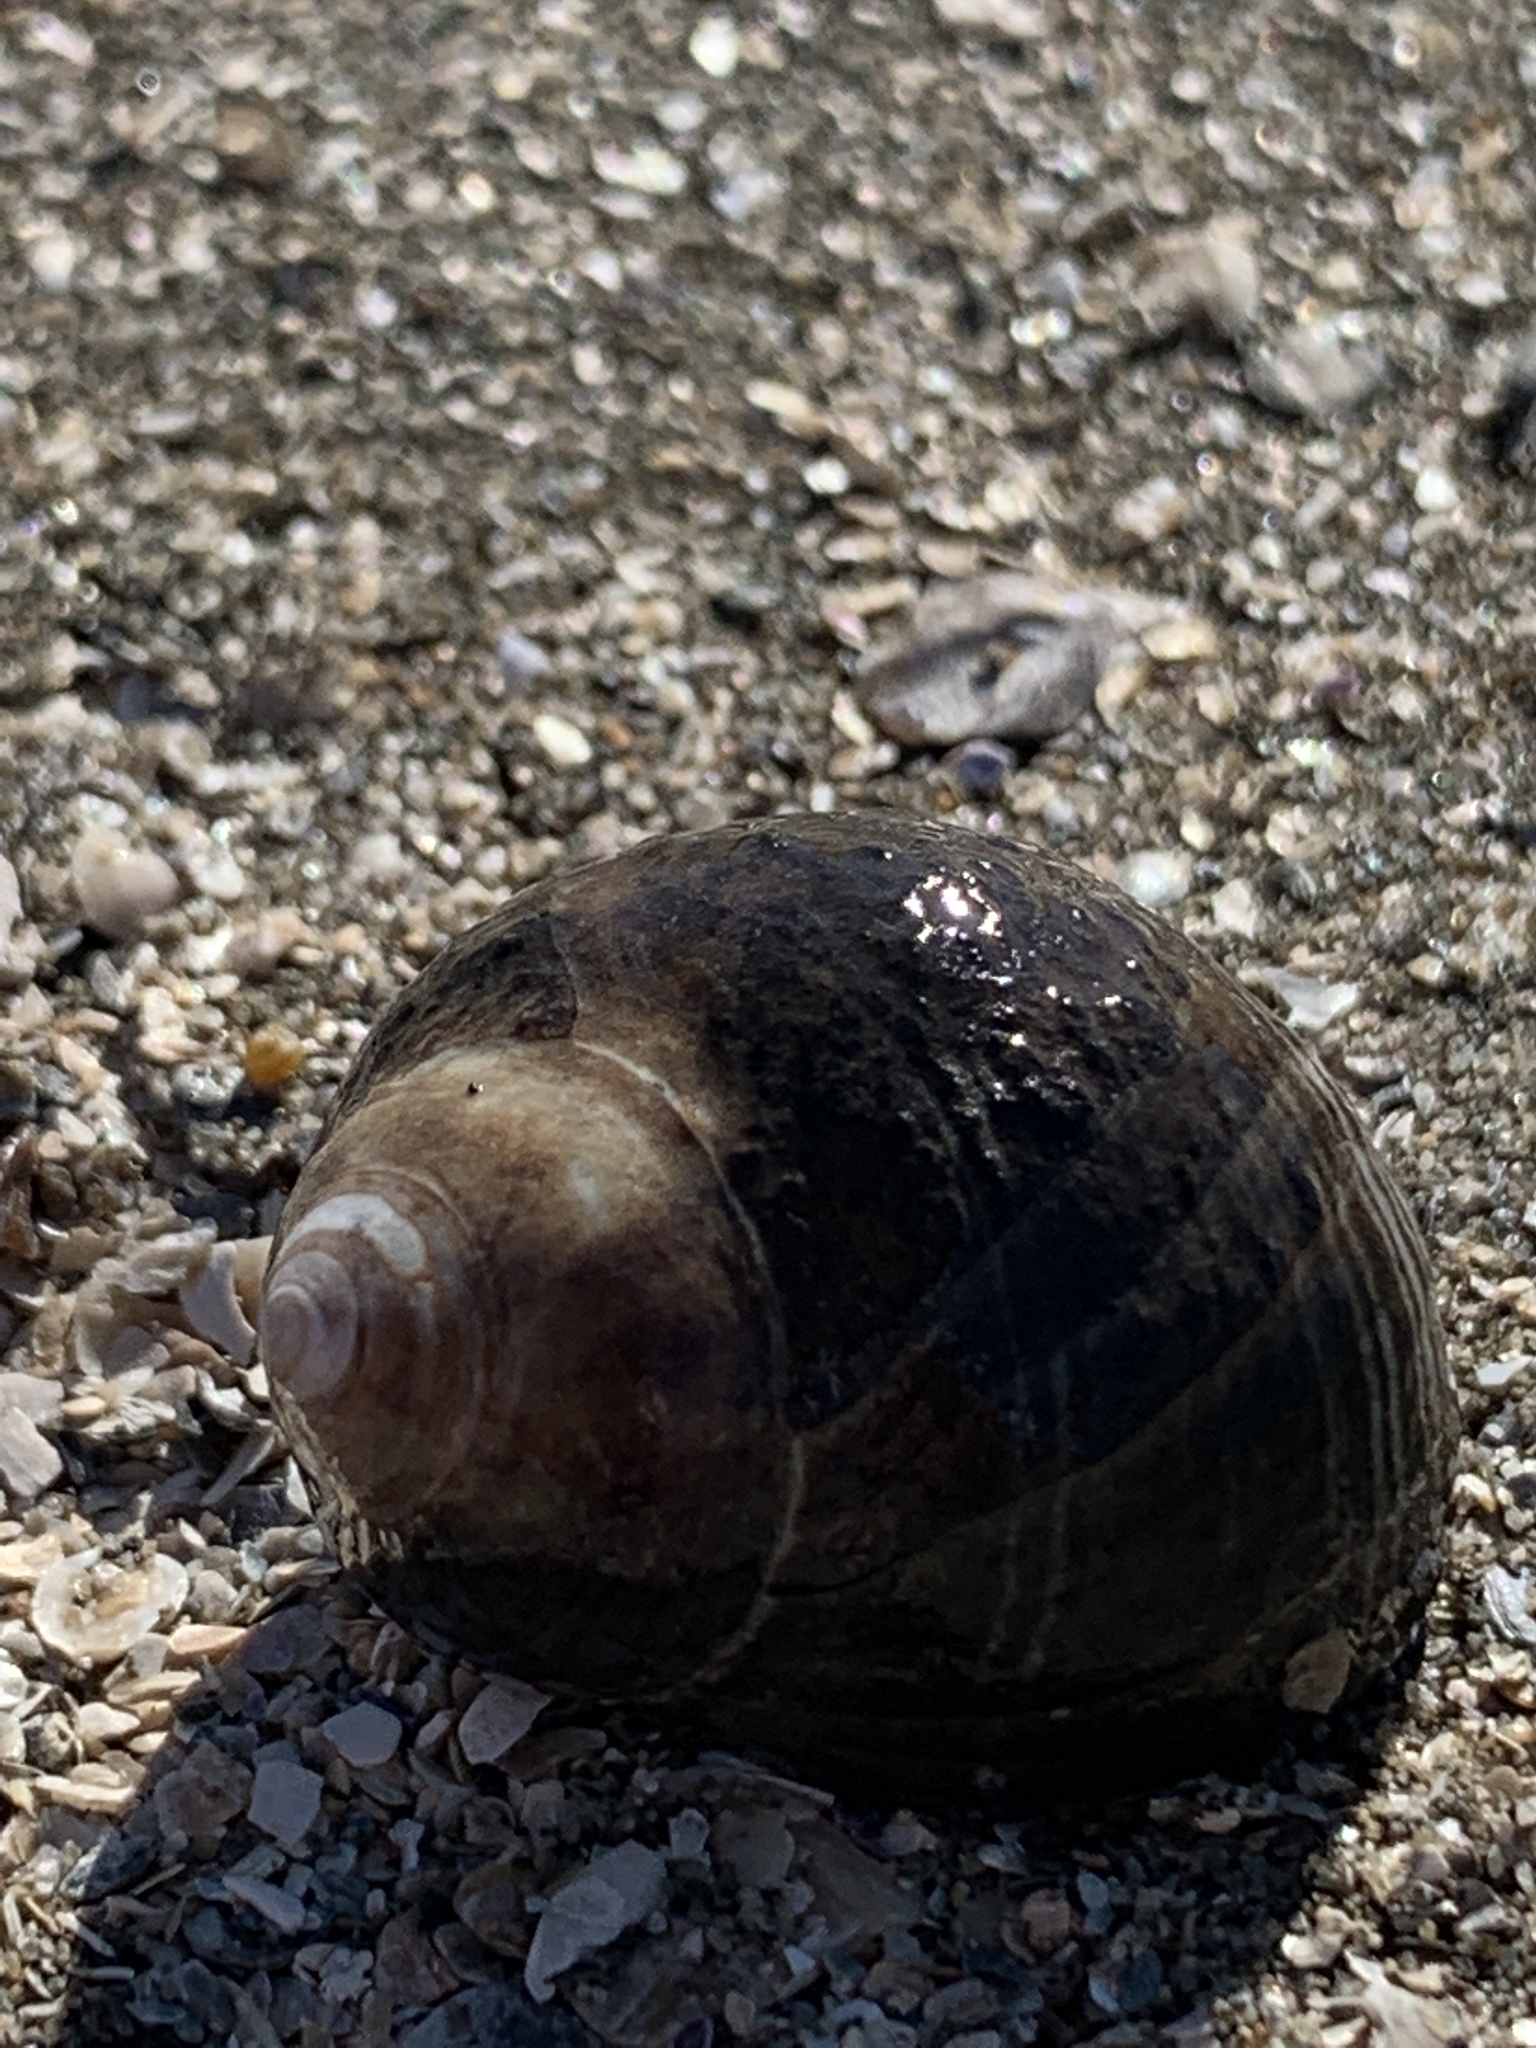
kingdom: Animalia
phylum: Mollusca
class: Gastropoda
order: Littorinimorpha
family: Littorinidae
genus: Littorina
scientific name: Littorina littorea
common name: Common periwinkle
